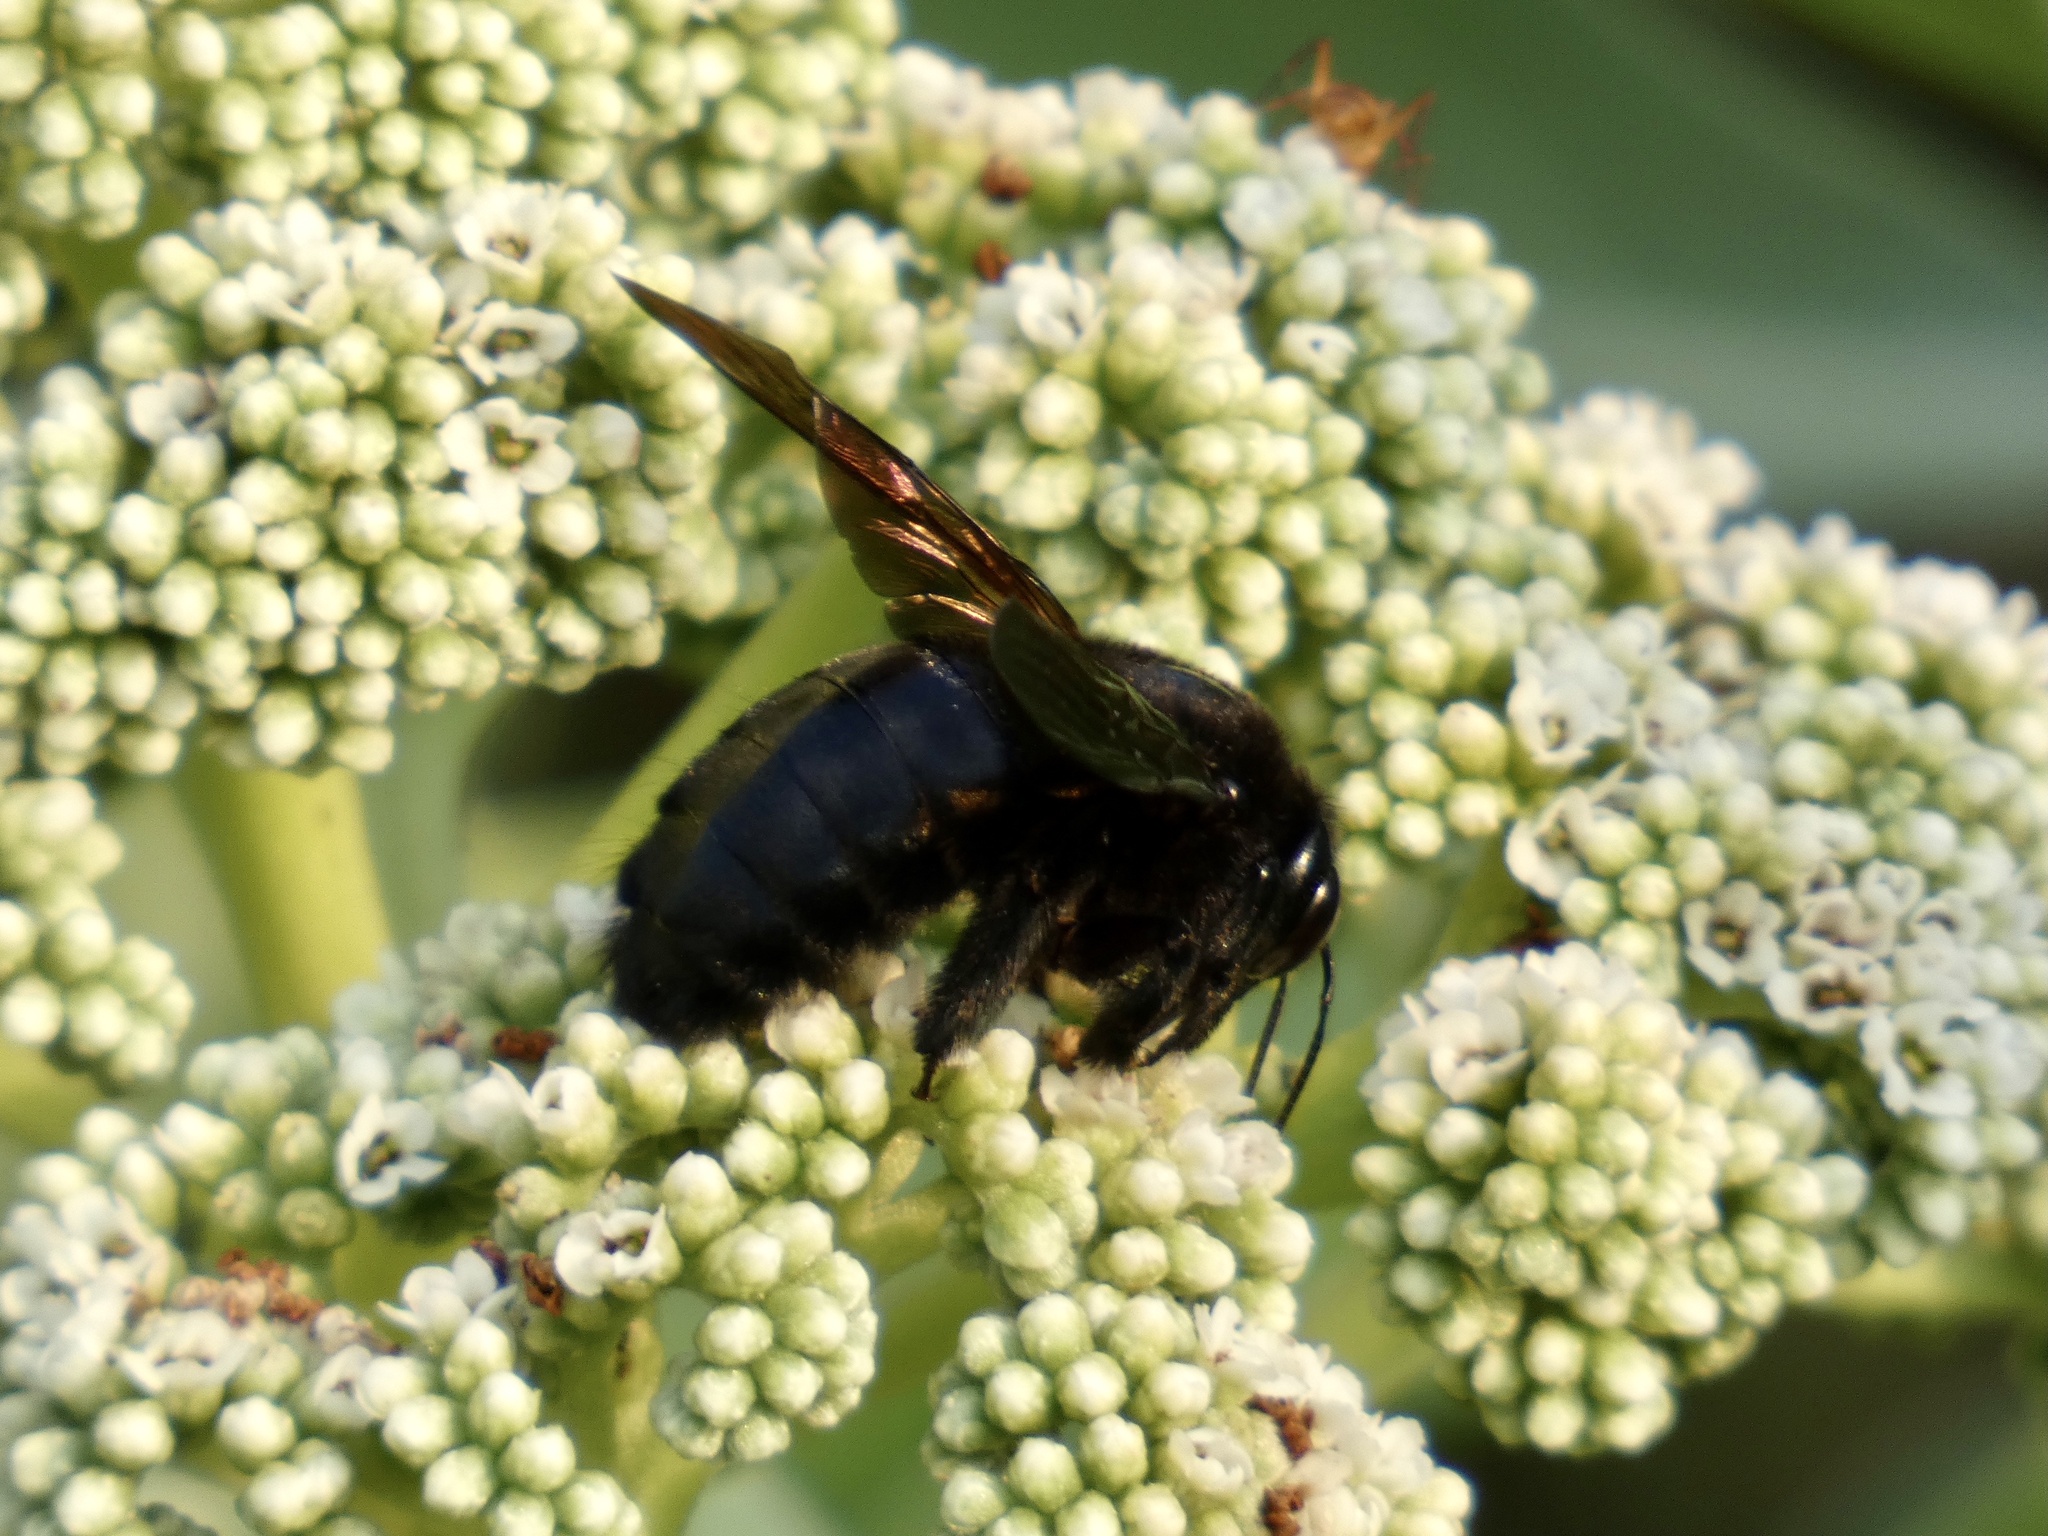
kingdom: Animalia
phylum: Arthropoda
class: Insecta
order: Hymenoptera
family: Apidae
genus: Xylocopa
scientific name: Xylocopa sonorina
